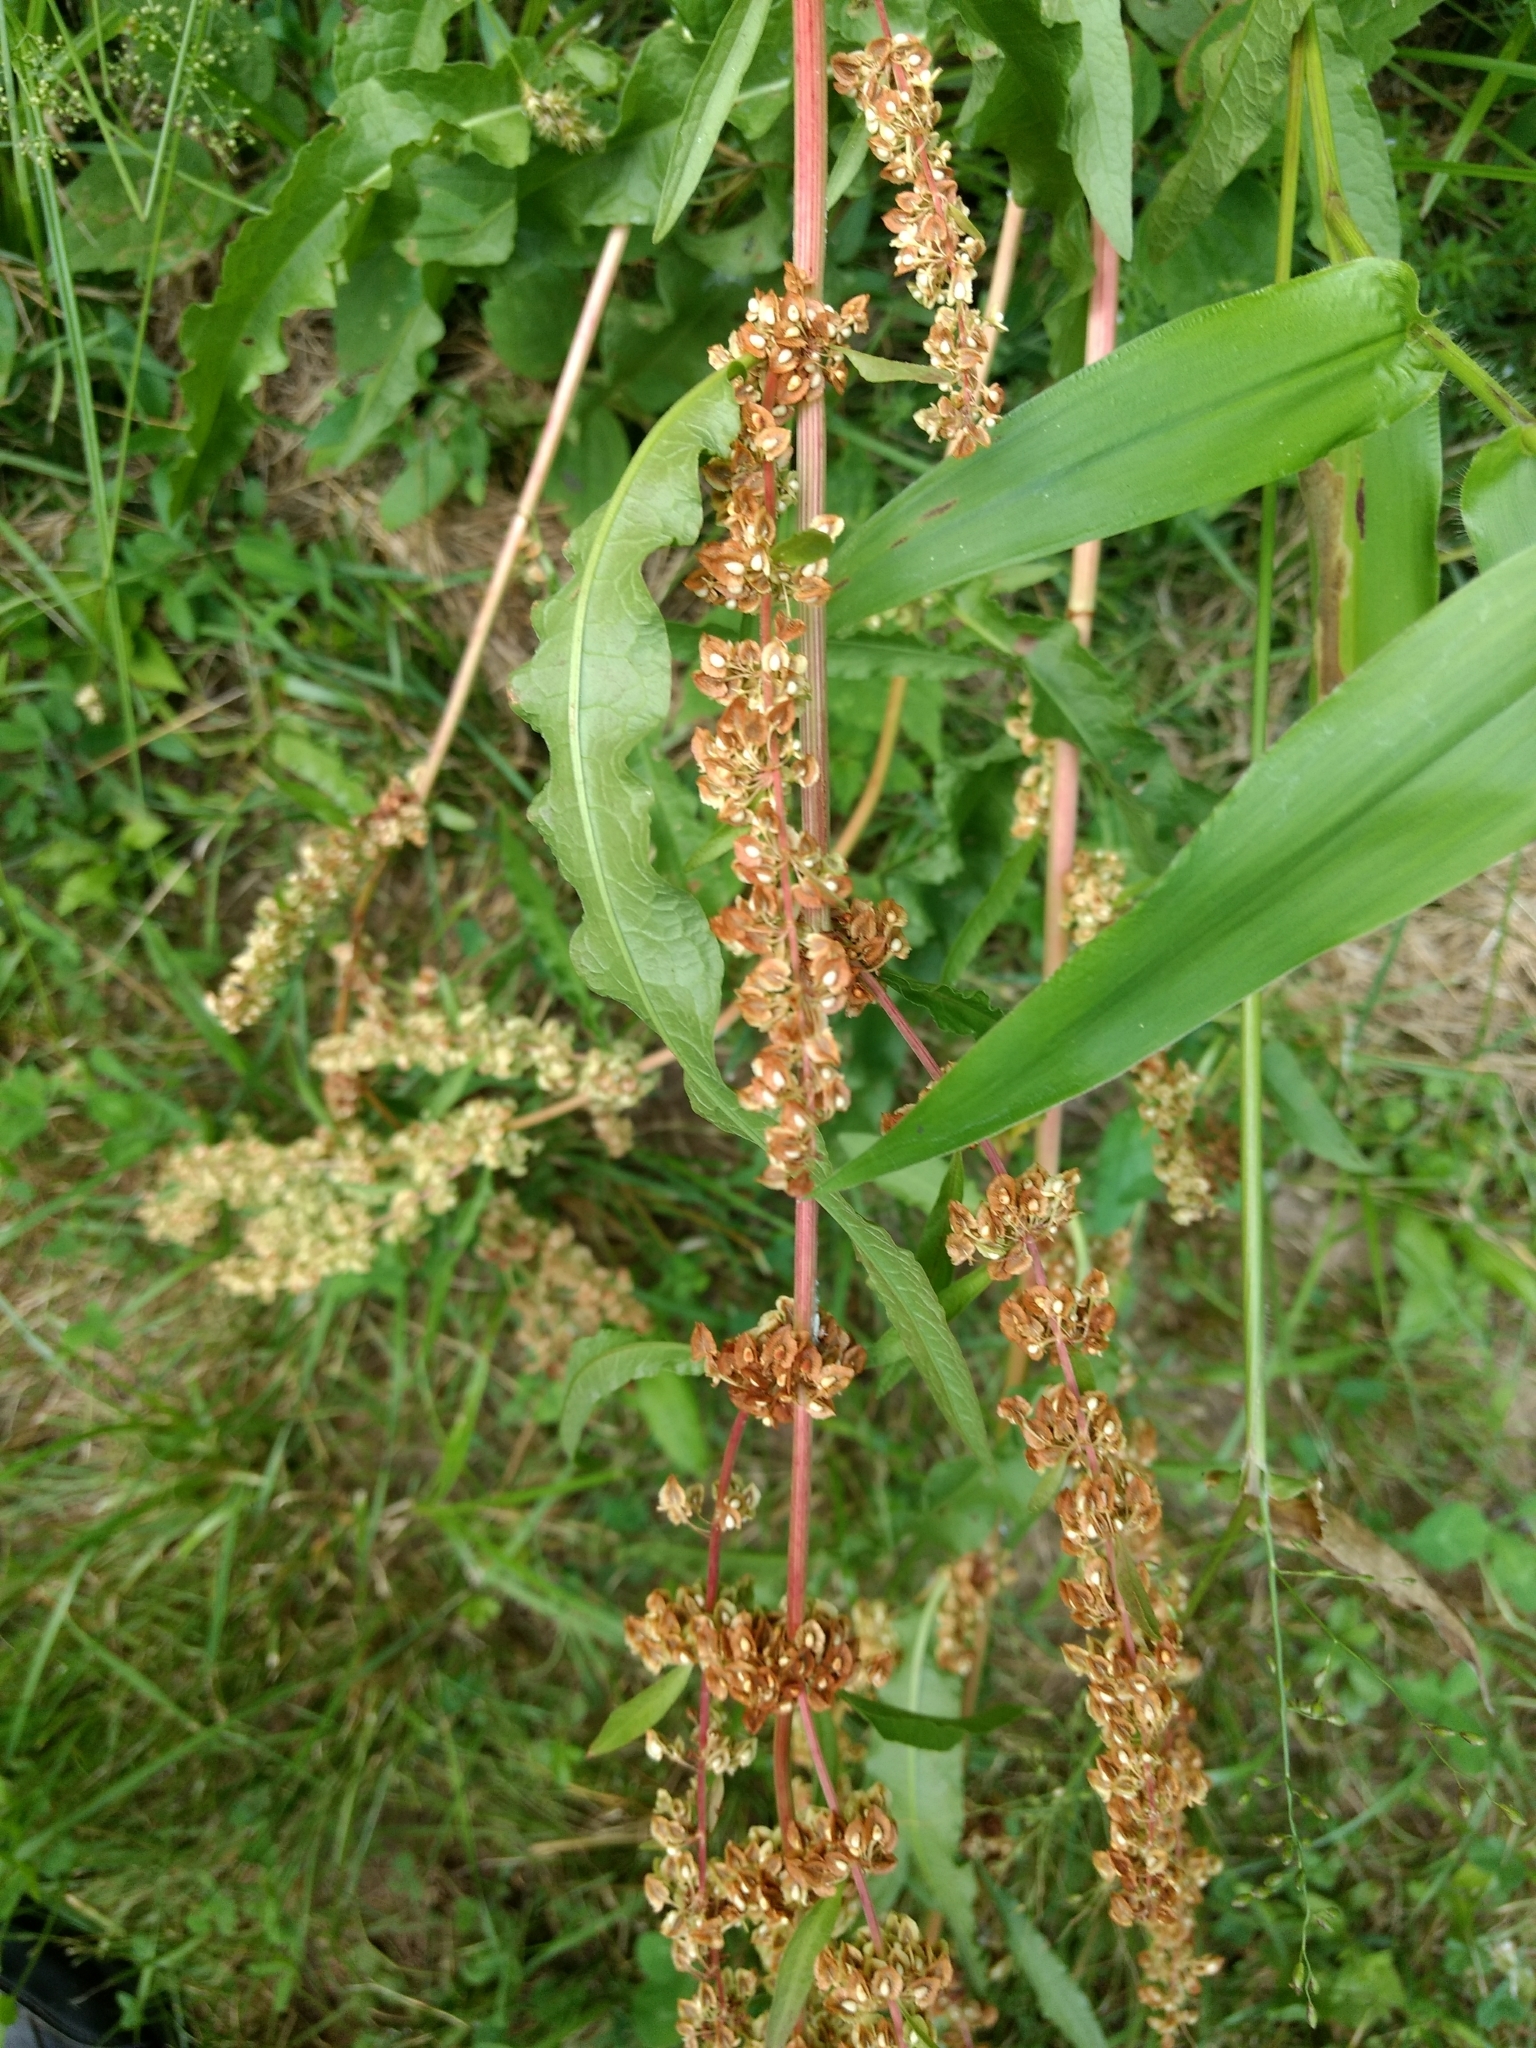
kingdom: Plantae
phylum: Tracheophyta
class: Magnoliopsida
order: Caryophyllales
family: Polygonaceae
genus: Rumex
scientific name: Rumex crispus
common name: Curled dock
